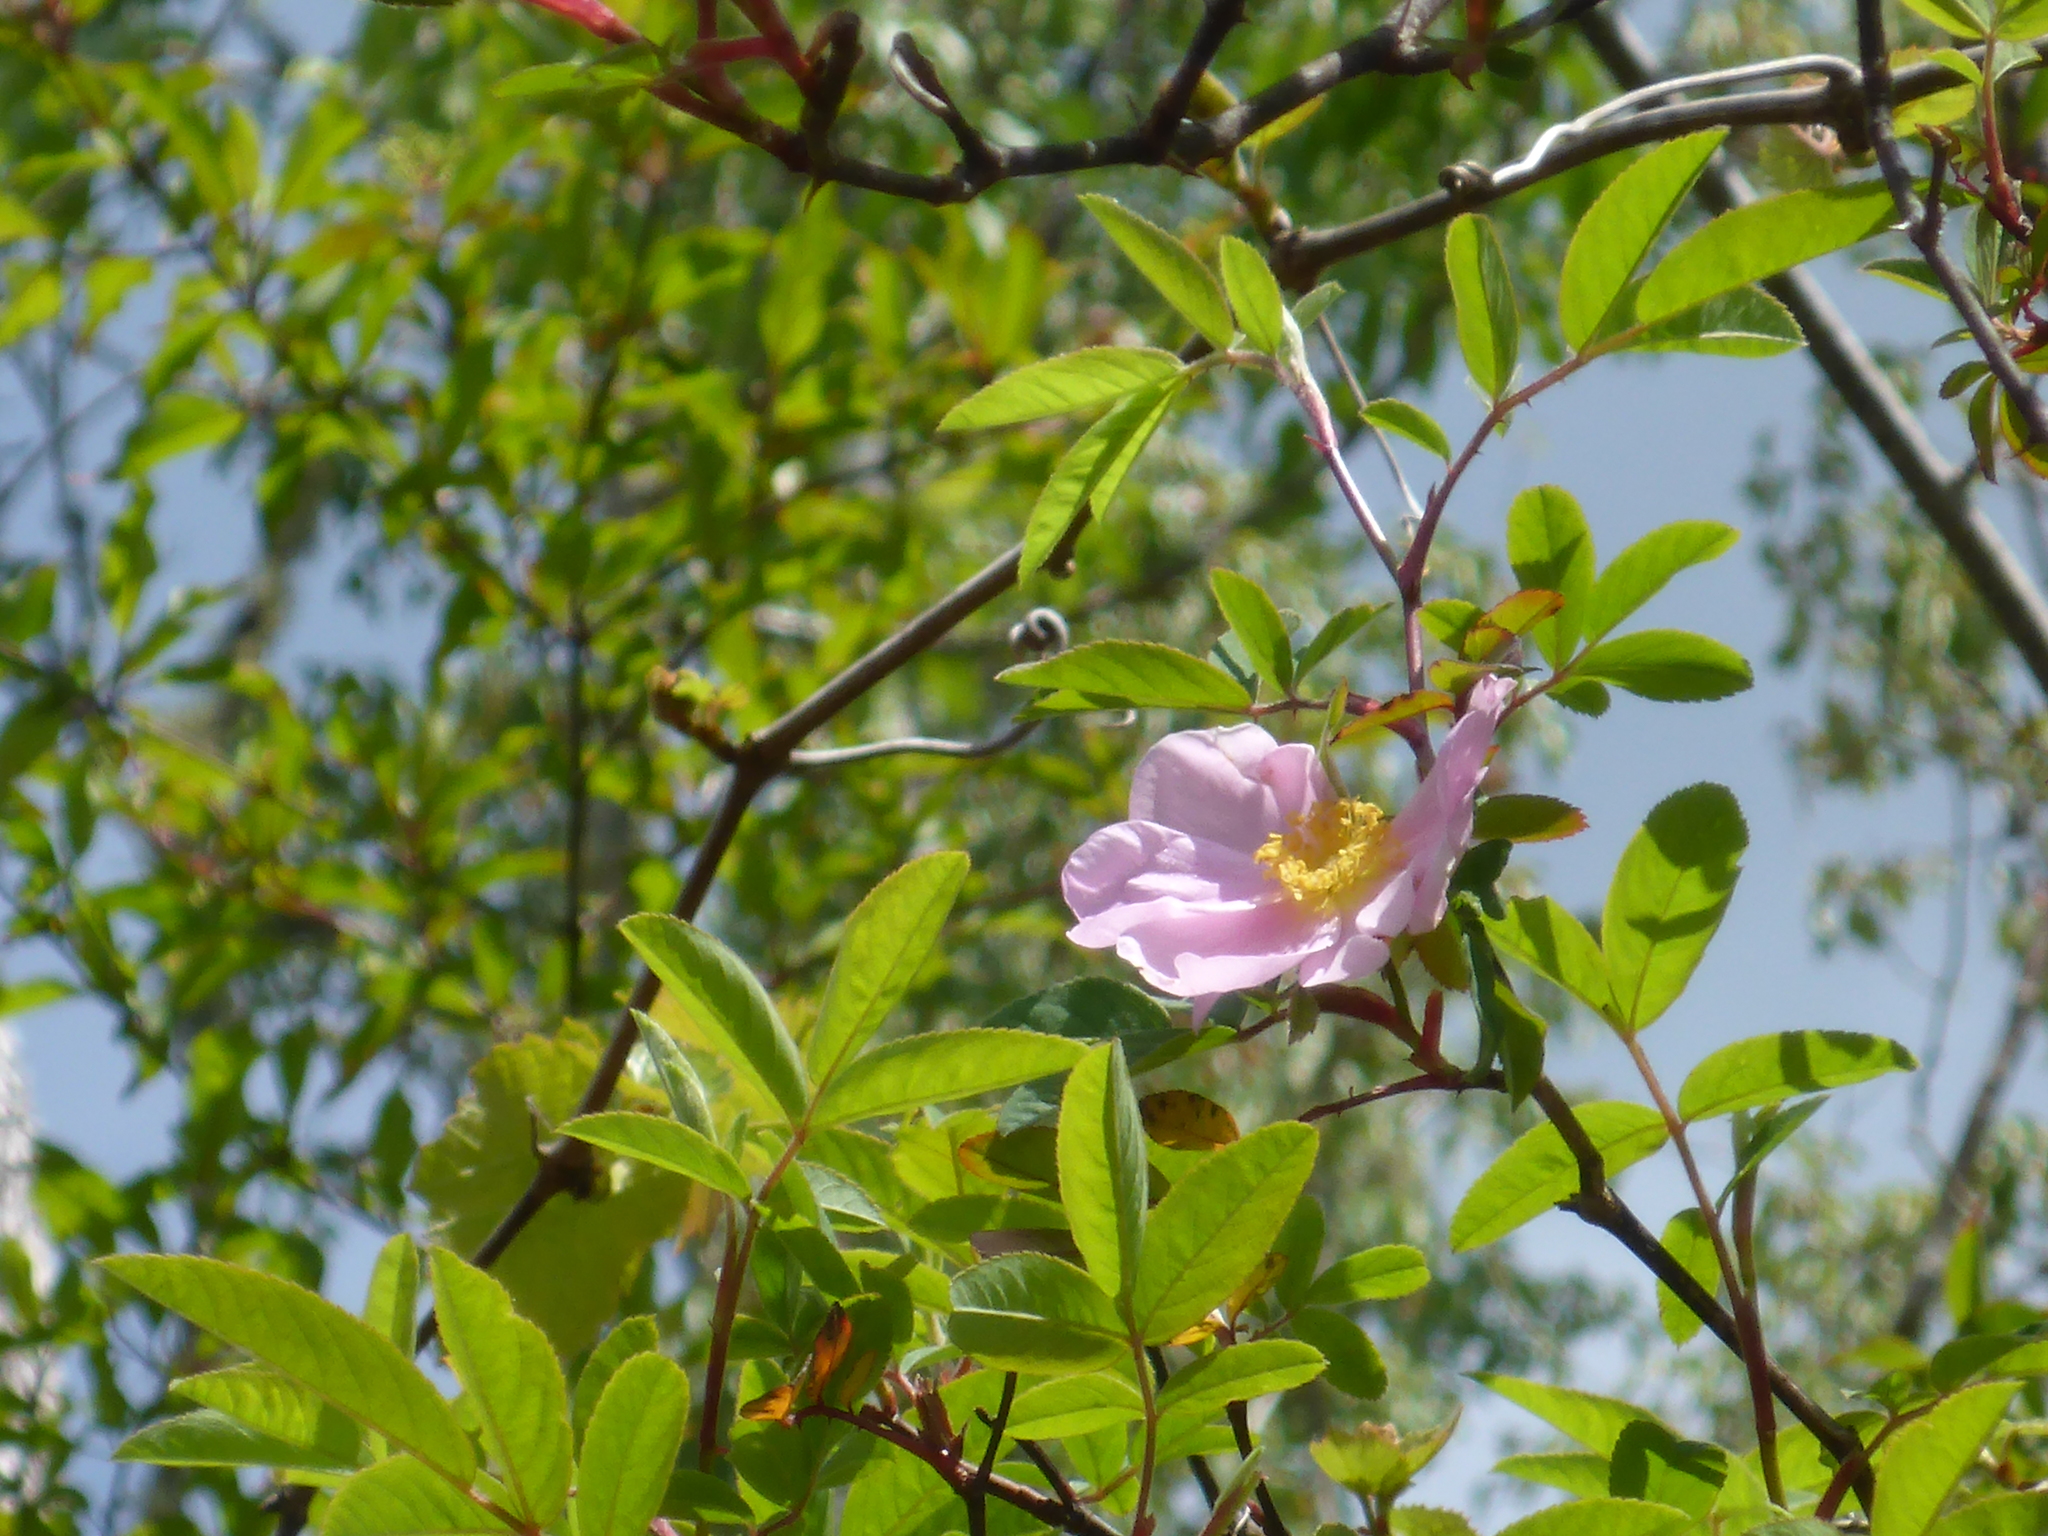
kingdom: Plantae
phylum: Tracheophyta
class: Magnoliopsida
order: Rosales
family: Rosaceae
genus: Rosa
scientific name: Rosa palustris
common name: Swamp rose
